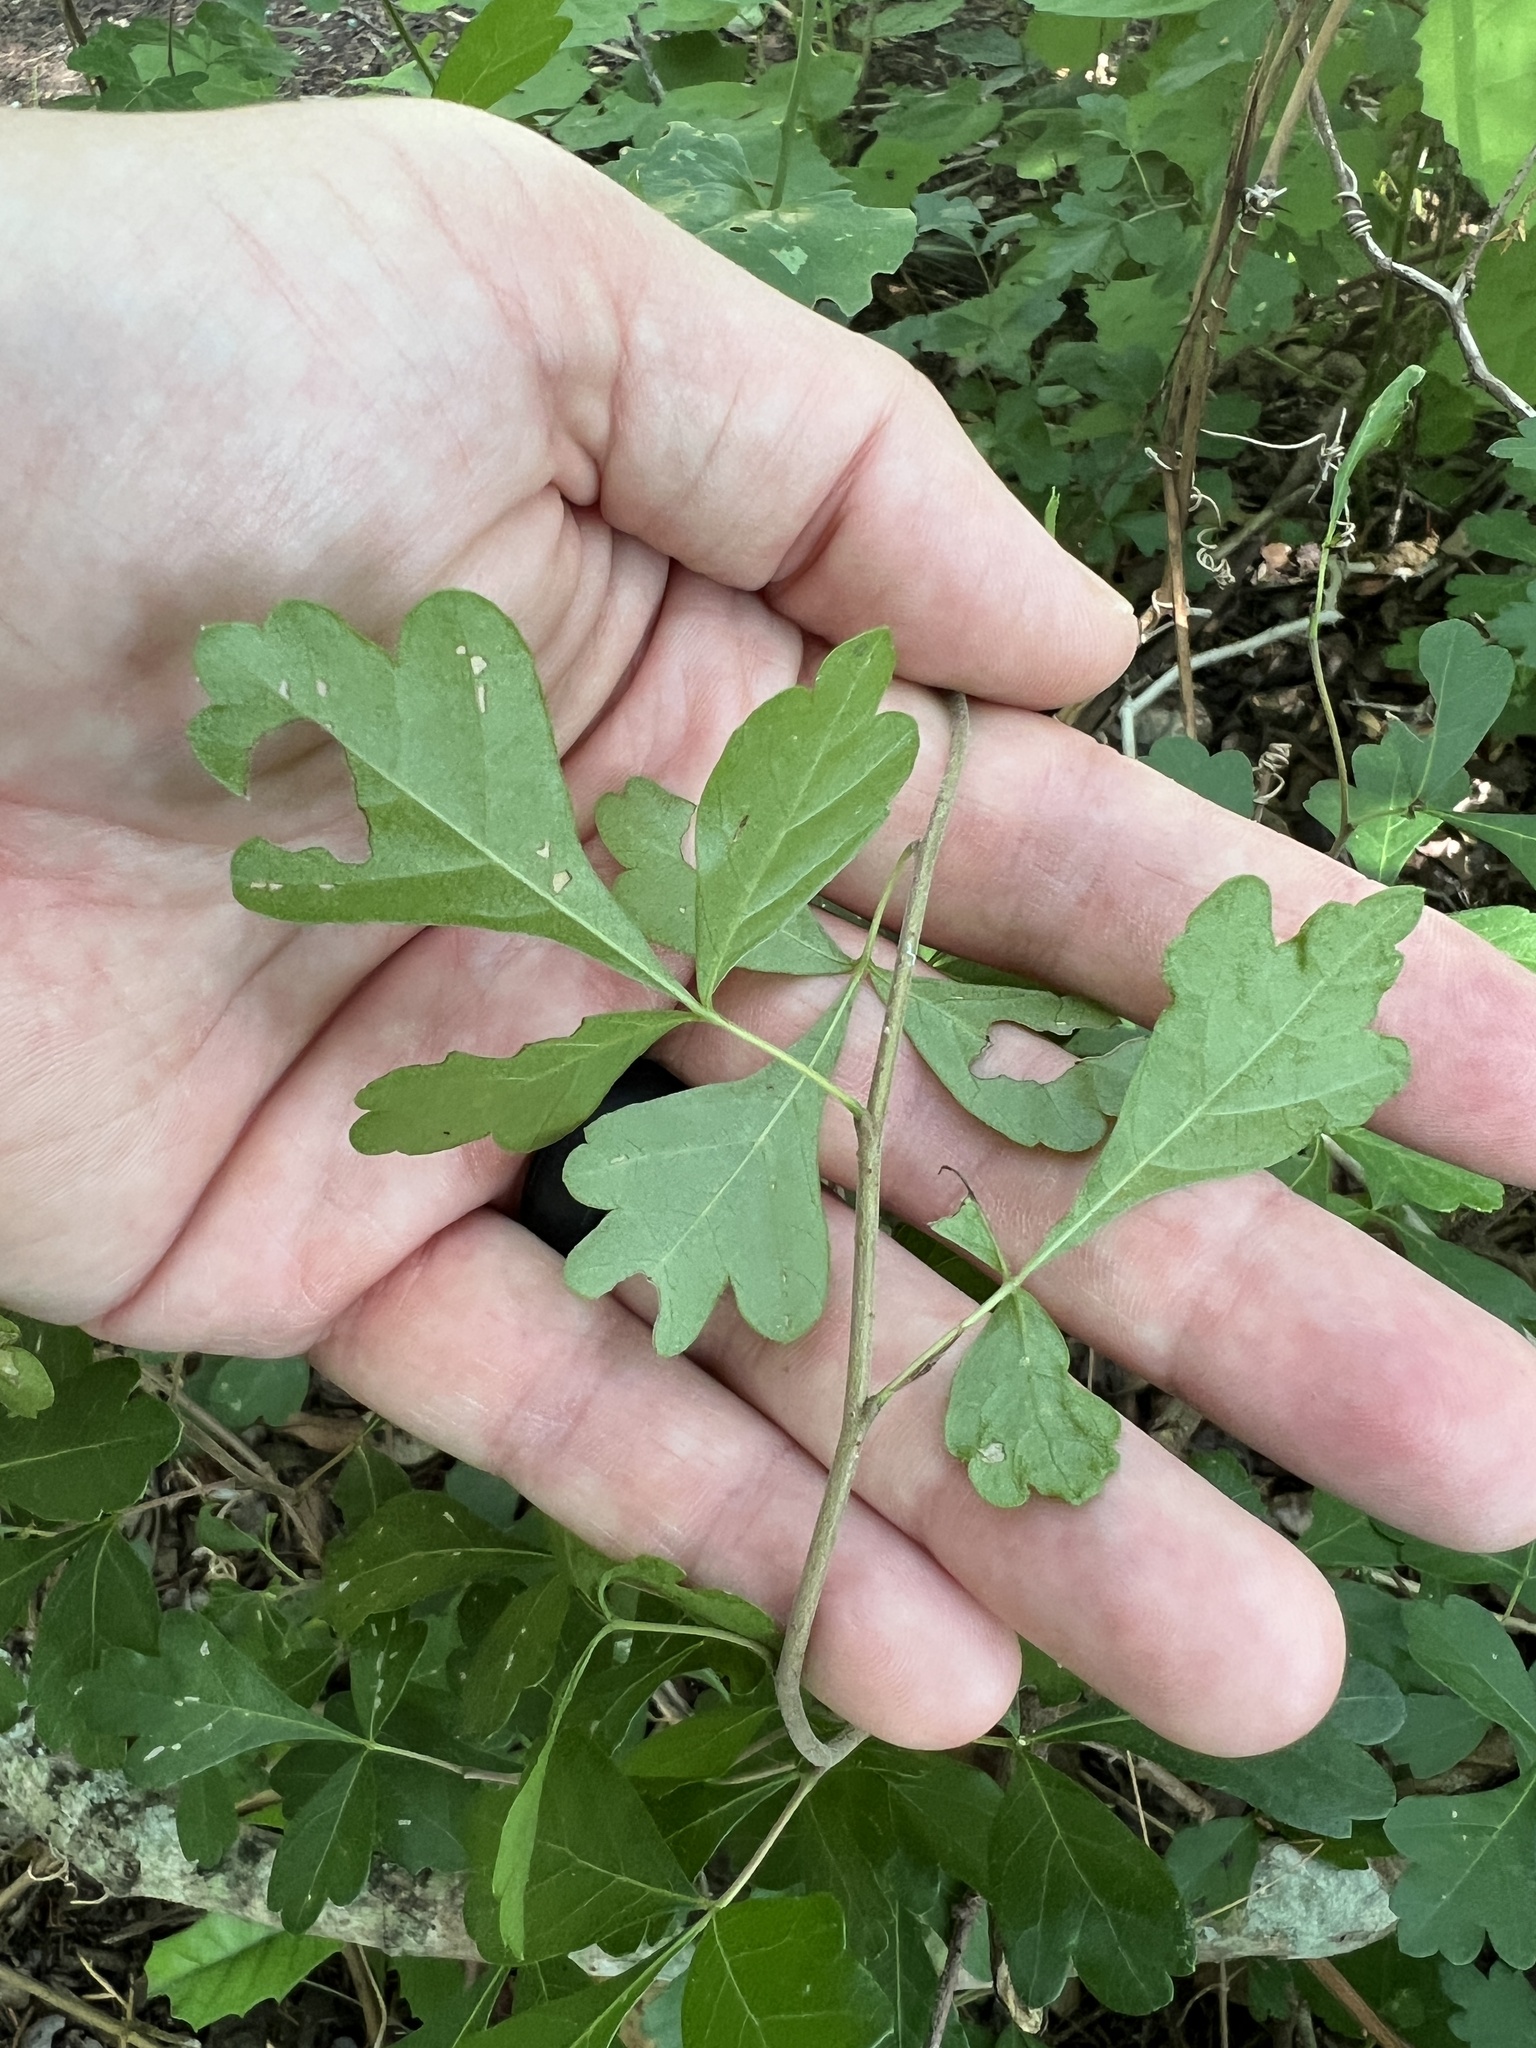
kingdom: Plantae
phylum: Tracheophyta
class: Magnoliopsida
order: Sapindales
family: Anacardiaceae
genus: Rhus
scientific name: Rhus aromatica
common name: Aromatic sumac
